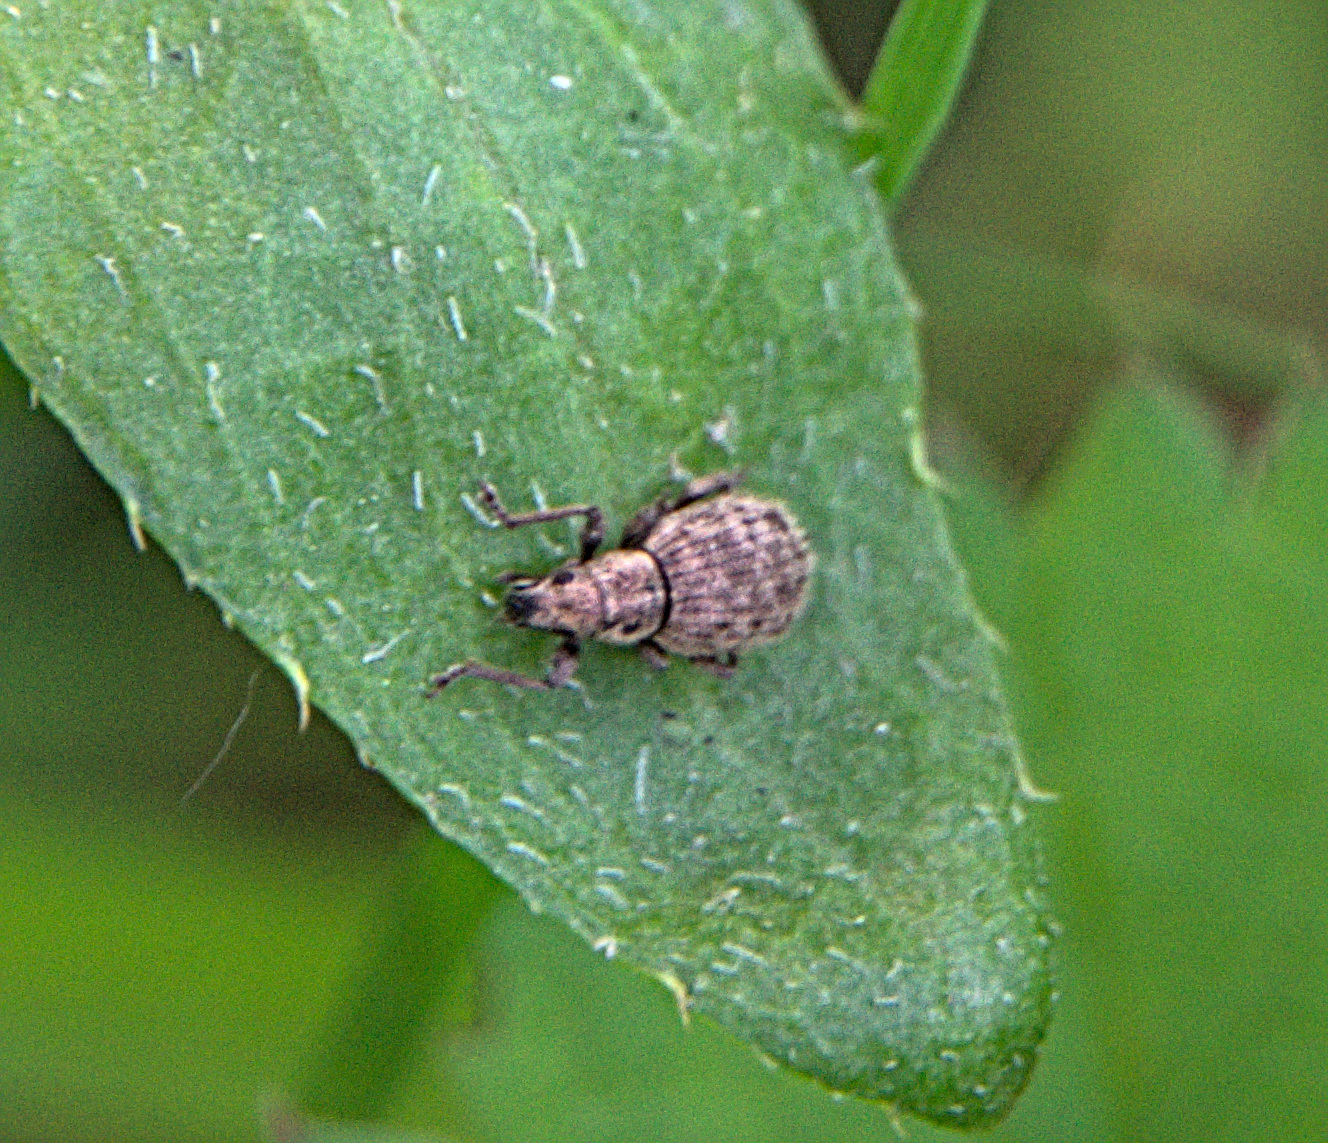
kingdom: Animalia
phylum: Arthropoda
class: Insecta
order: Coleoptera
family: Curculionidae
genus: Sciaphilus
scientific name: Sciaphilus asperatus
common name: Weevil
